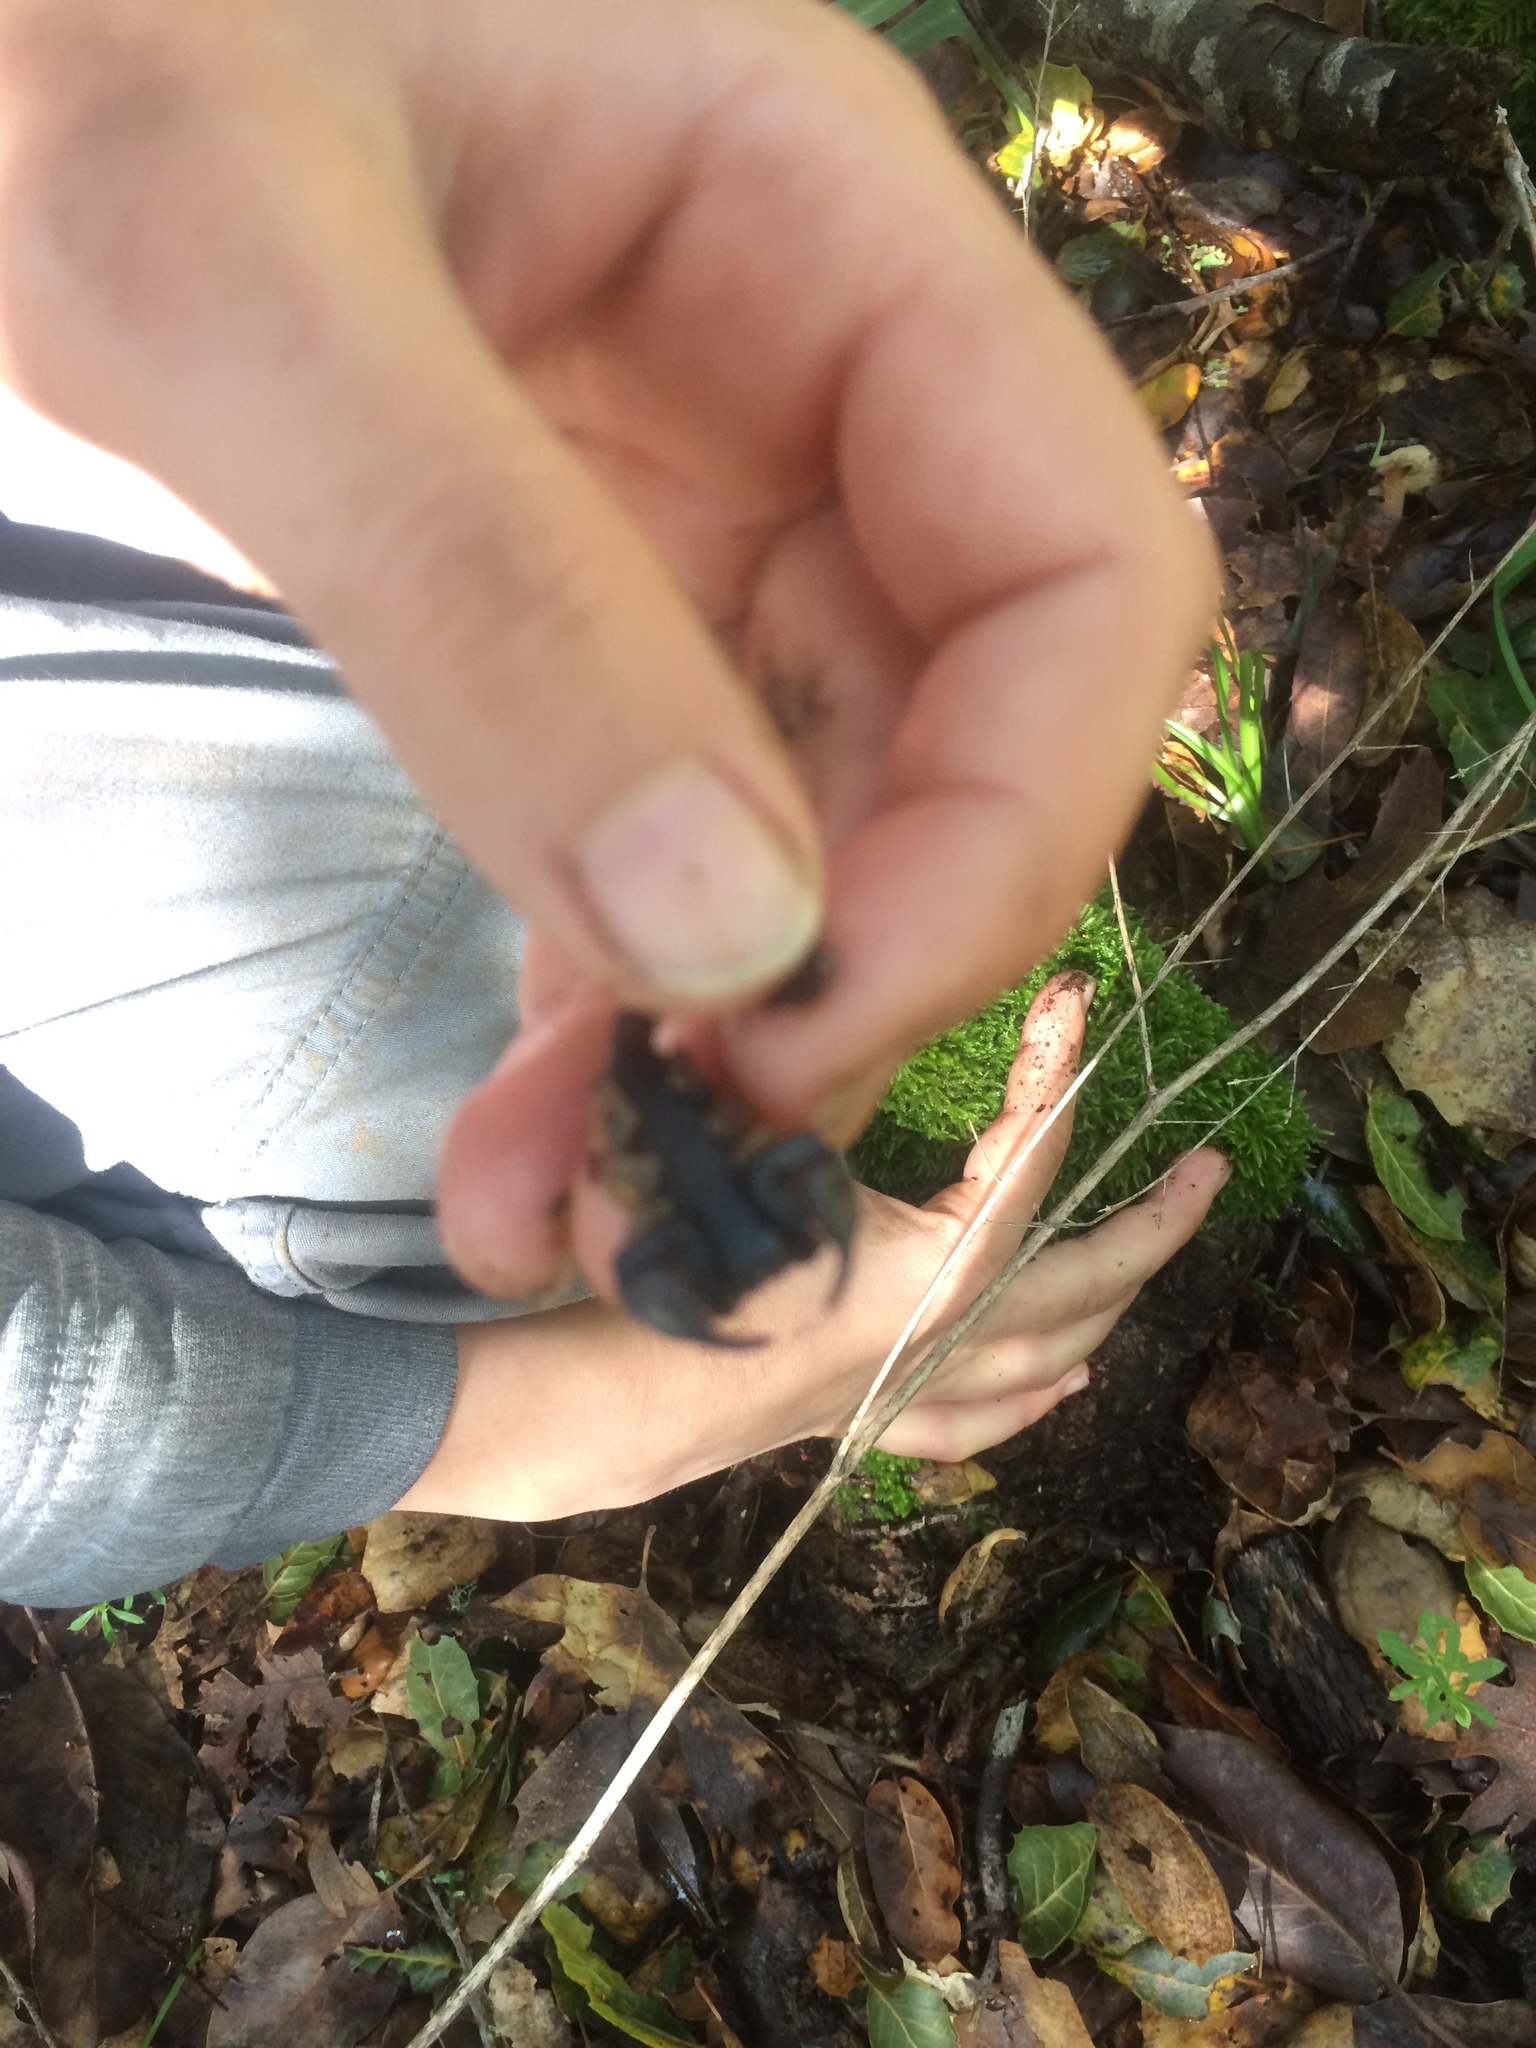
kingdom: Animalia
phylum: Arthropoda
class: Arachnida
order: Scorpiones
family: Chactidae
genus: Uroctonus
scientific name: Uroctonus mordax
